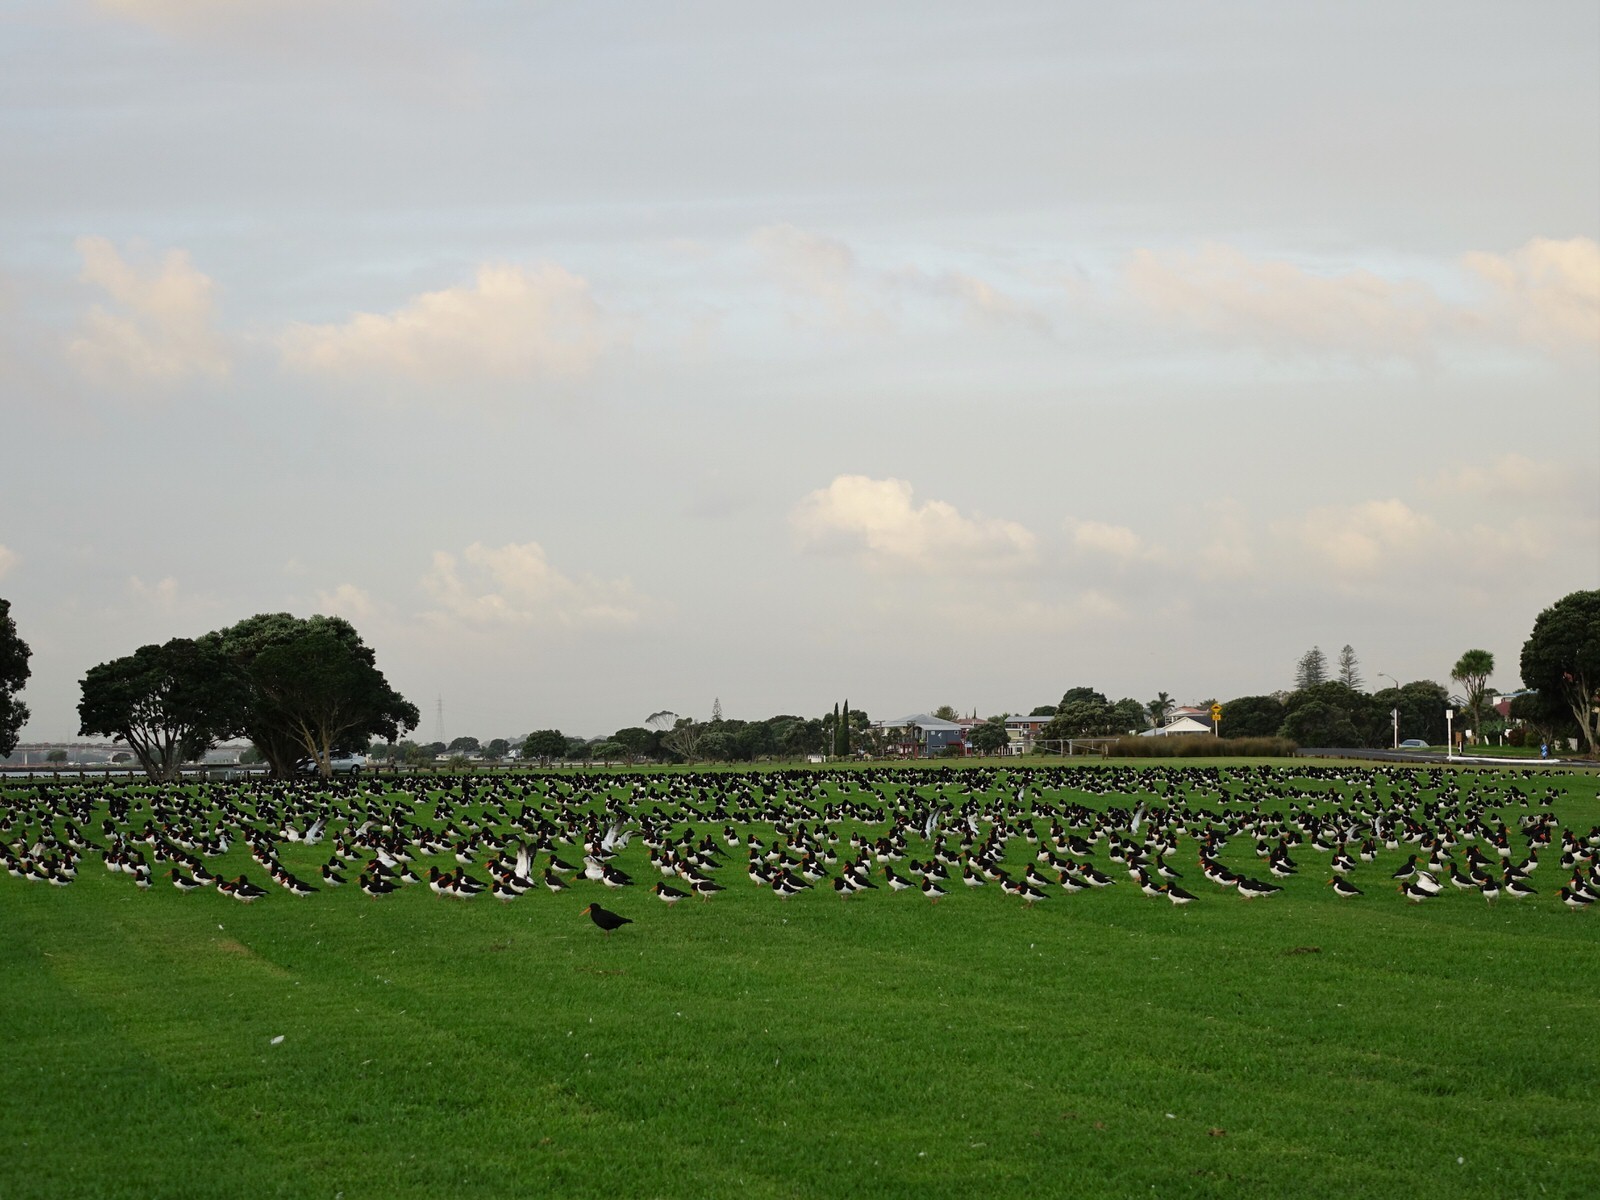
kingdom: Animalia
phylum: Chordata
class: Aves
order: Charadriiformes
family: Haematopodidae
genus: Haematopus
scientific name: Haematopus finschi
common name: South island oystercatcher
